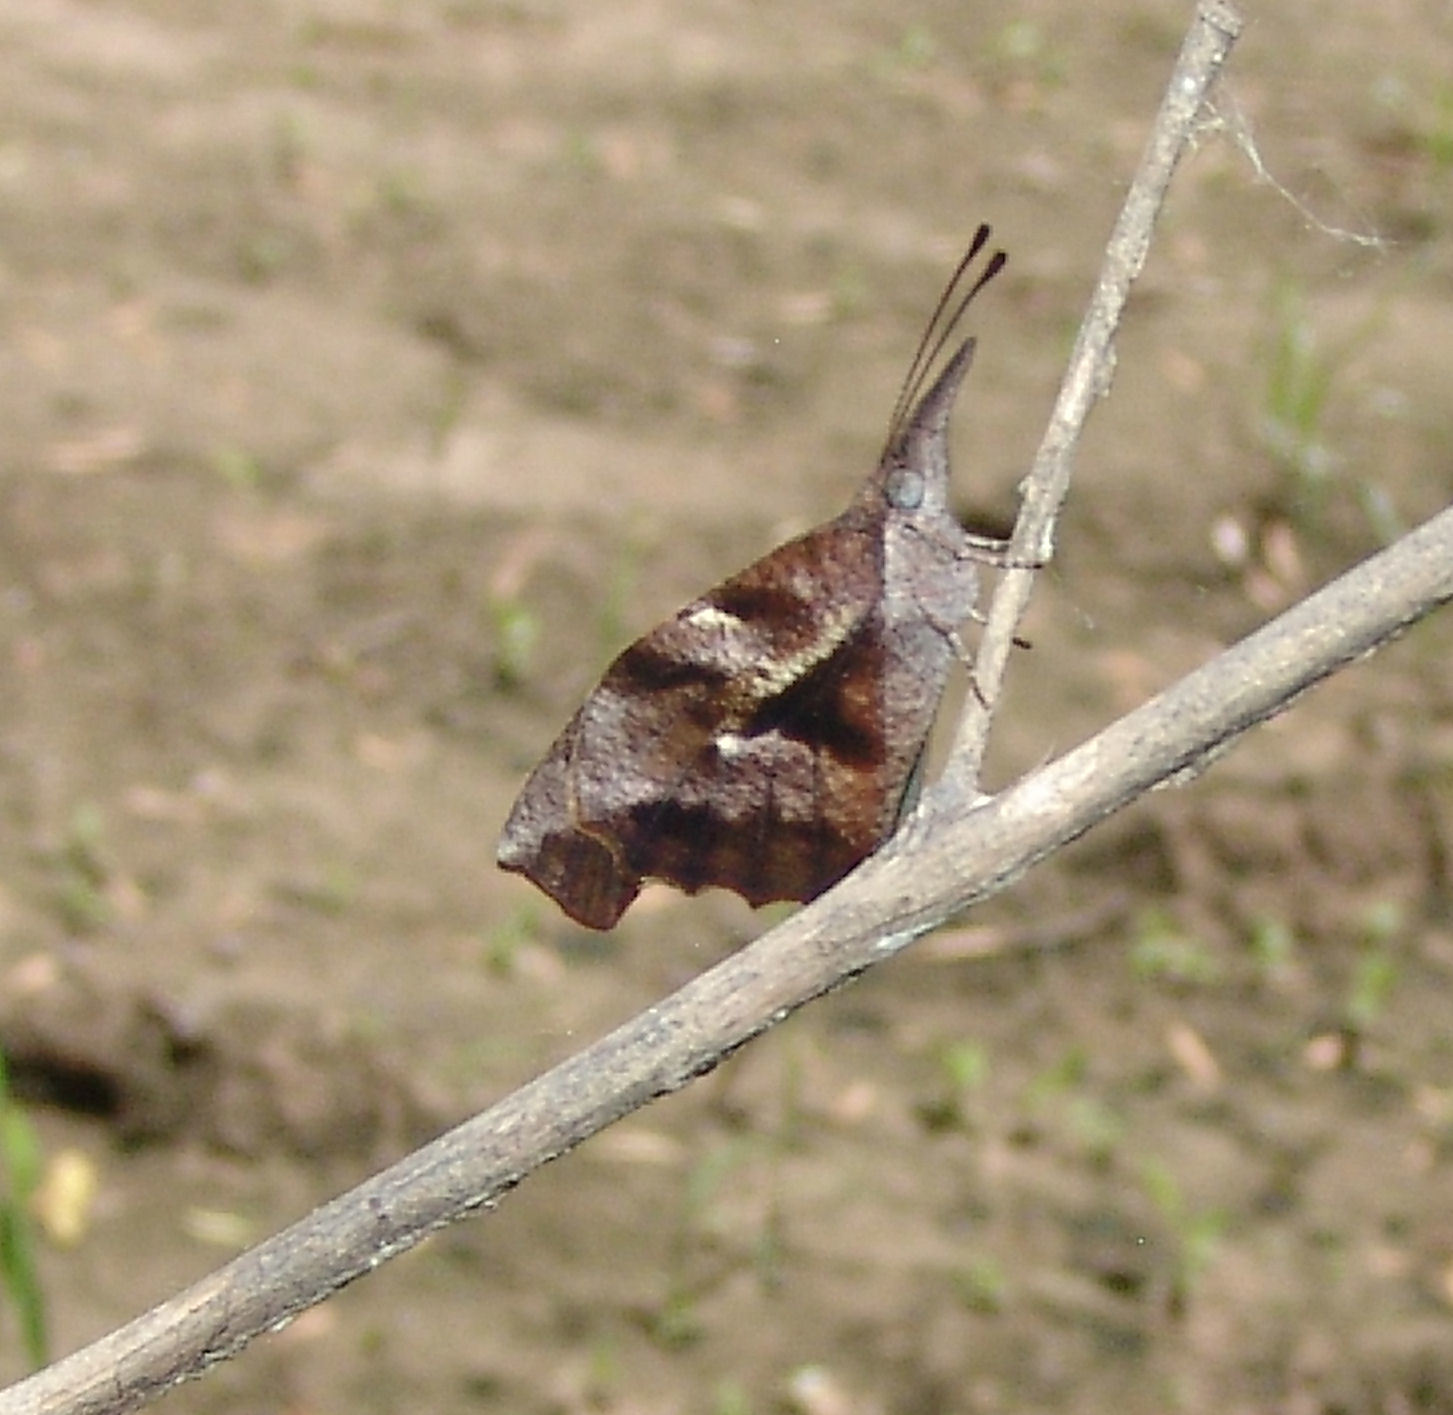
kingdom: Animalia
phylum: Arthropoda
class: Insecta
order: Lepidoptera
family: Nymphalidae
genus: Libytheana
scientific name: Libytheana carinenta
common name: American snout
